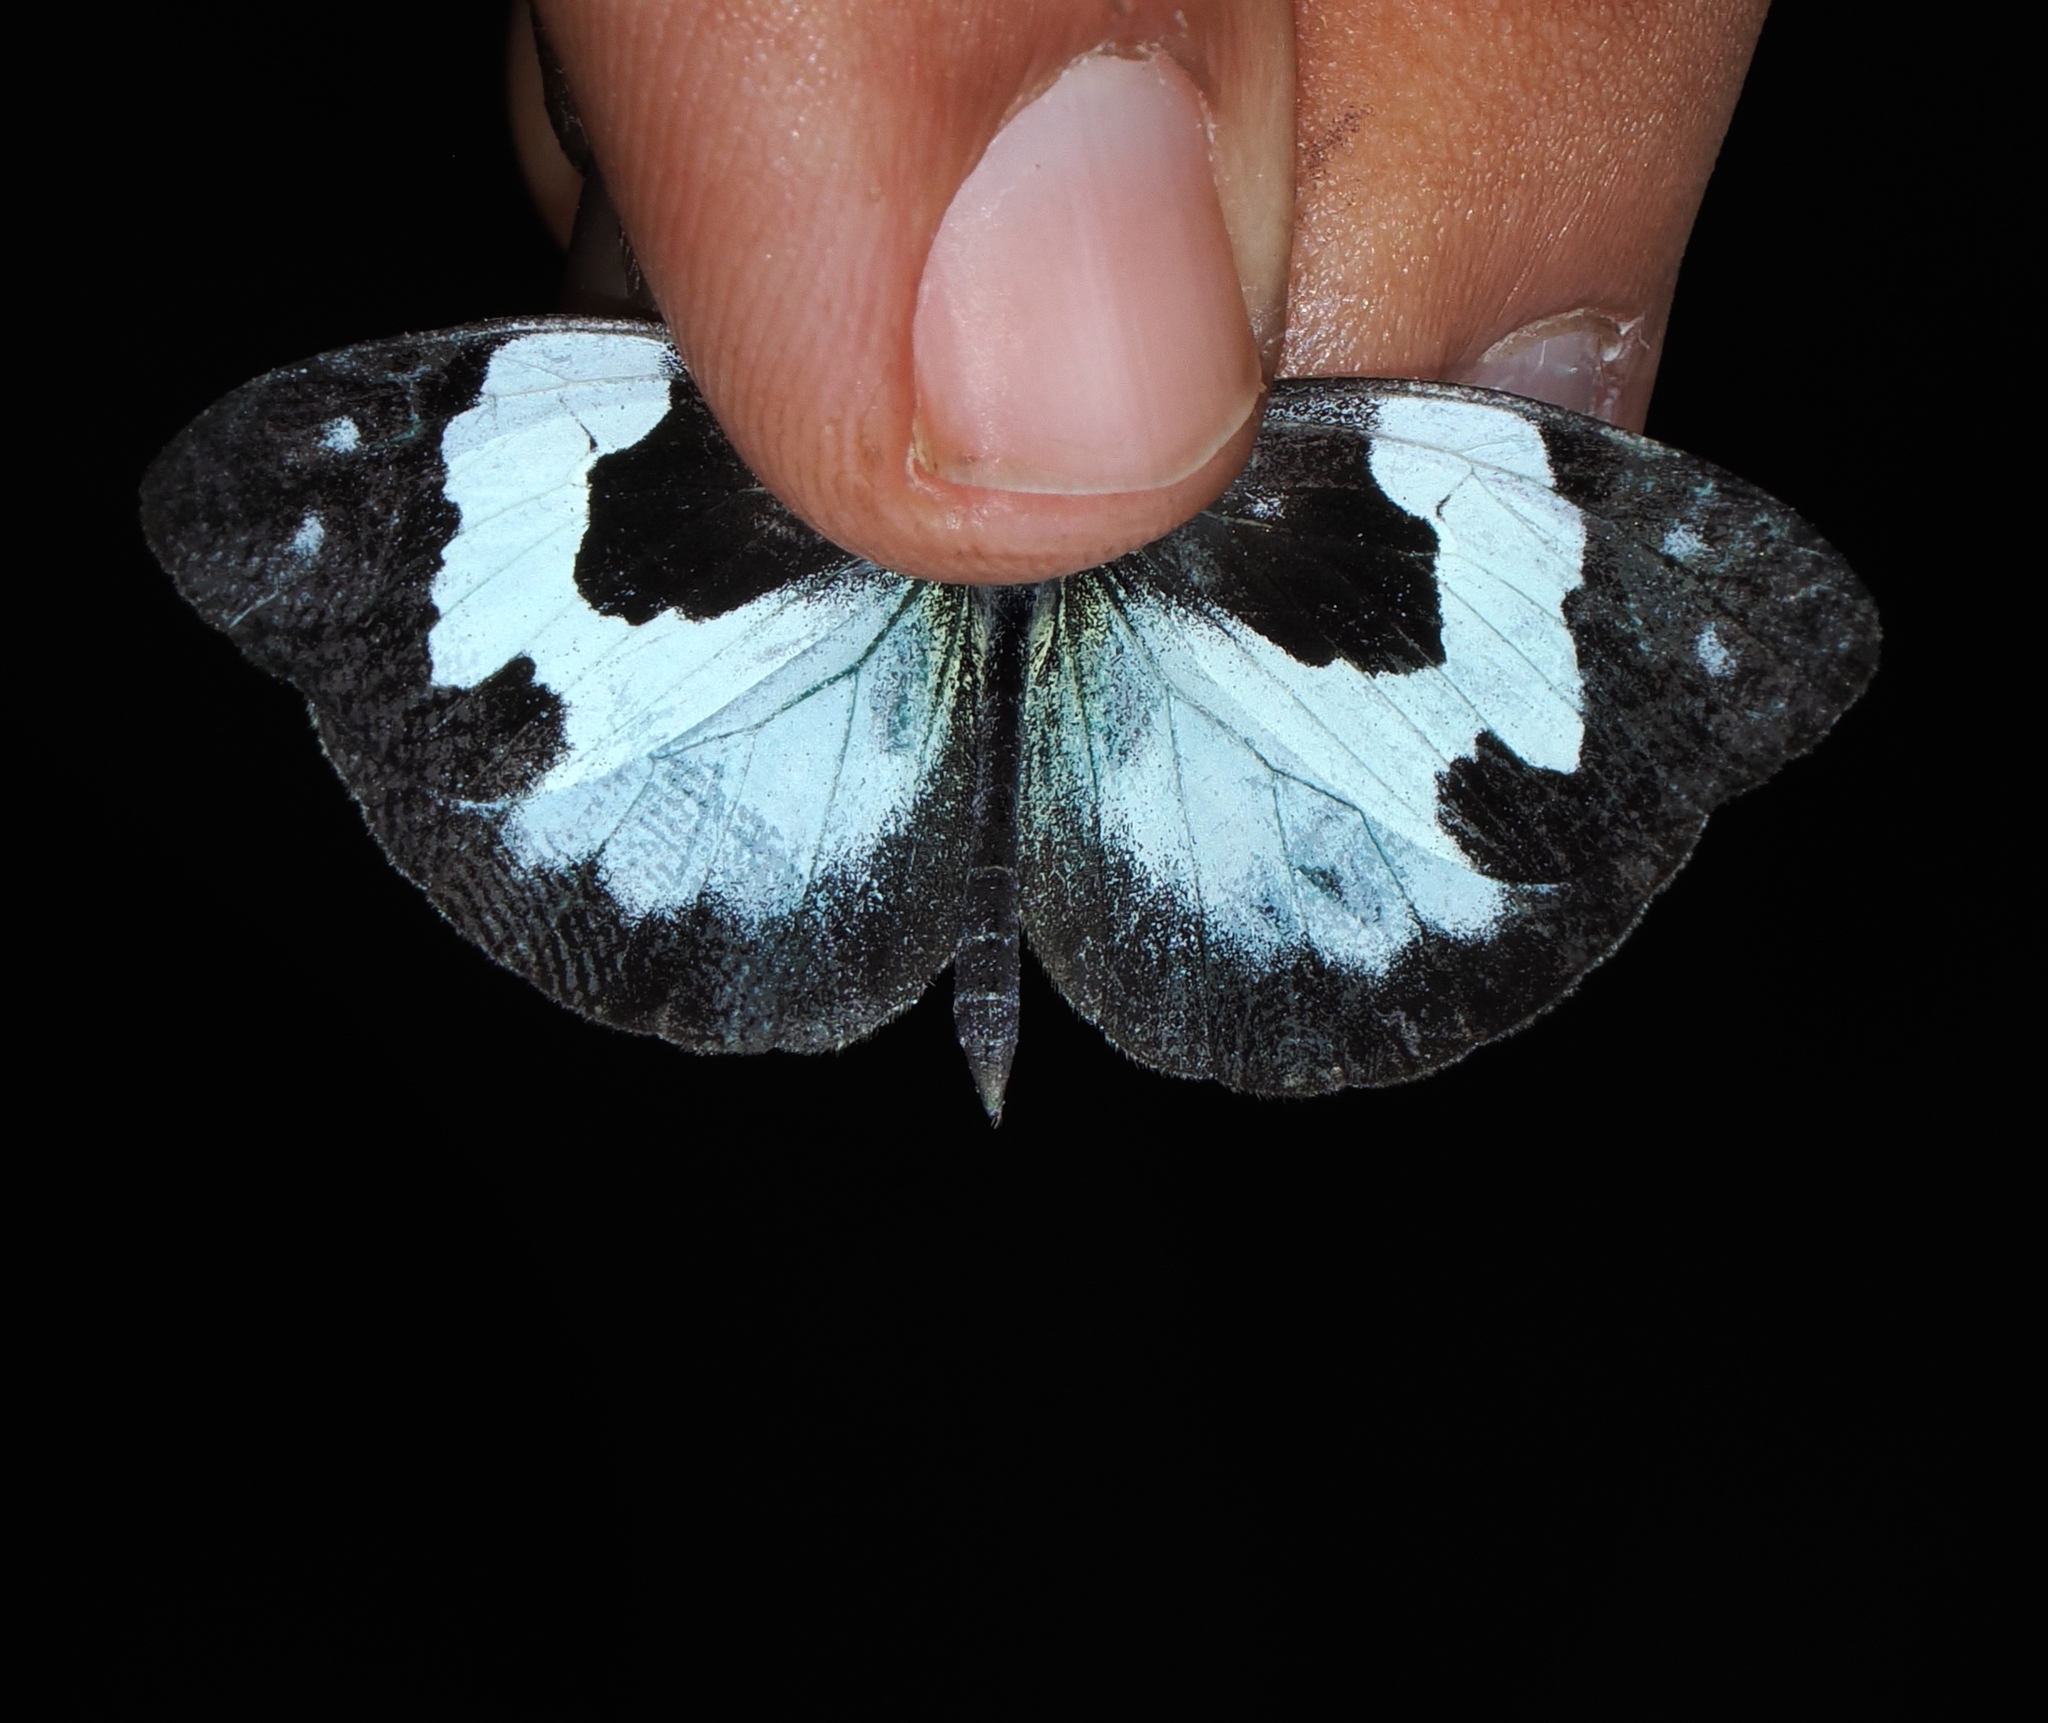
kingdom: Animalia
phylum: Arthropoda
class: Insecta
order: Lepidoptera
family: Pieridae
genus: Dismorphia
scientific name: Dismorphia hyposticta
